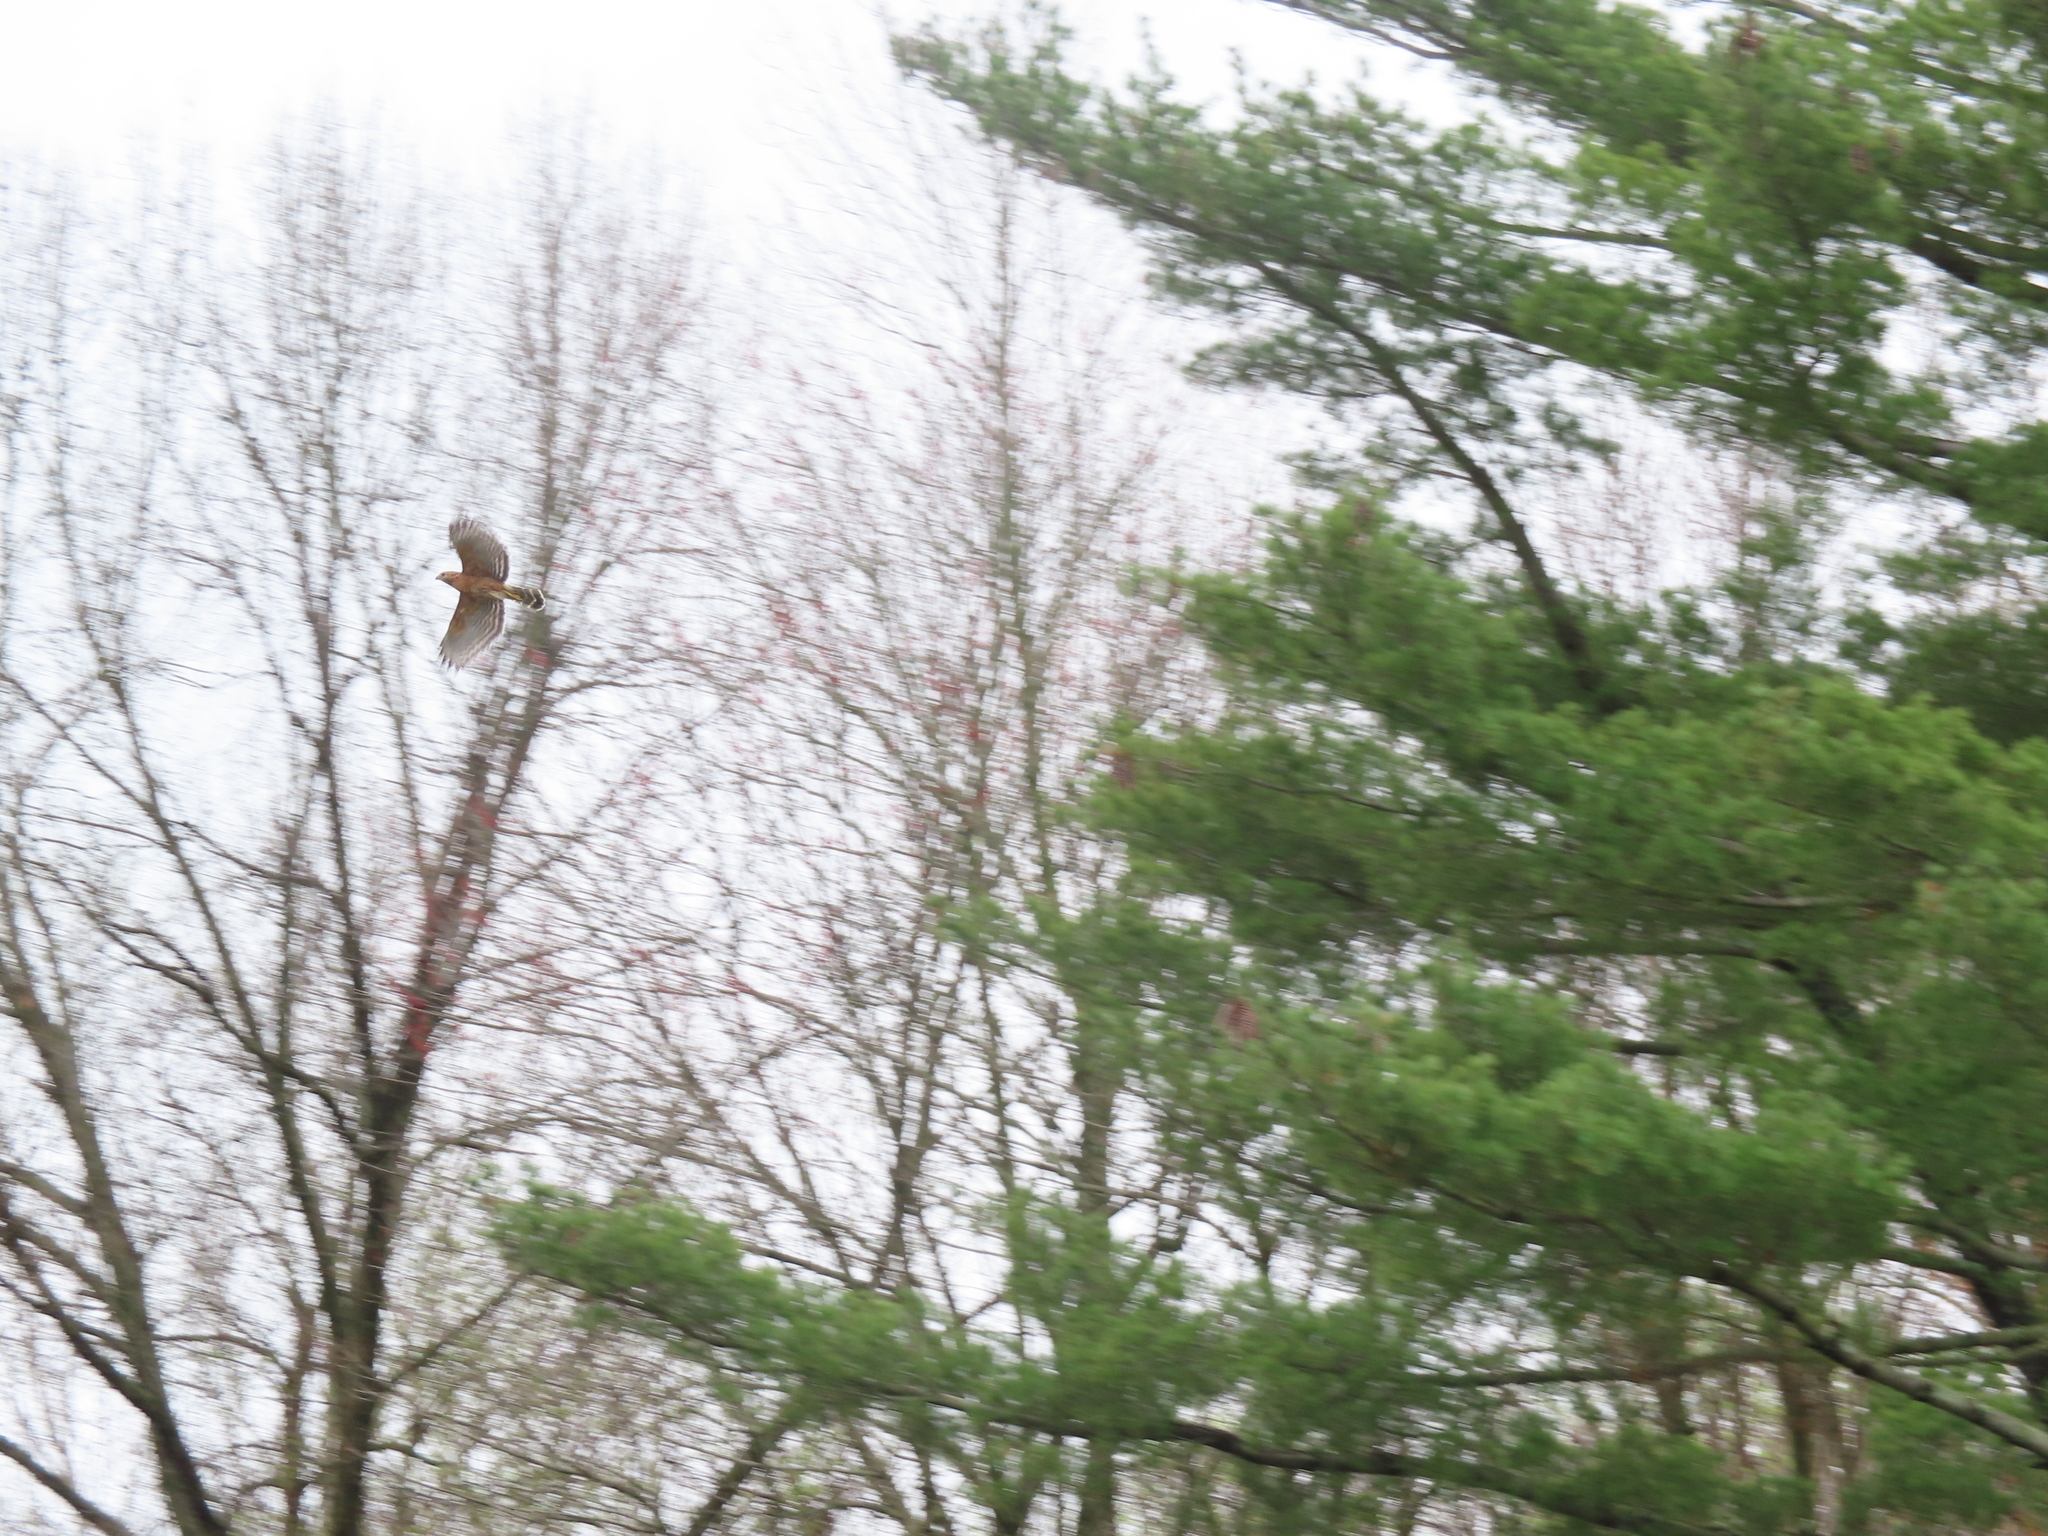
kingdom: Animalia
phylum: Chordata
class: Aves
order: Accipitriformes
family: Accipitridae
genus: Buteo
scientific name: Buteo lineatus
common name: Red-shouldered hawk
